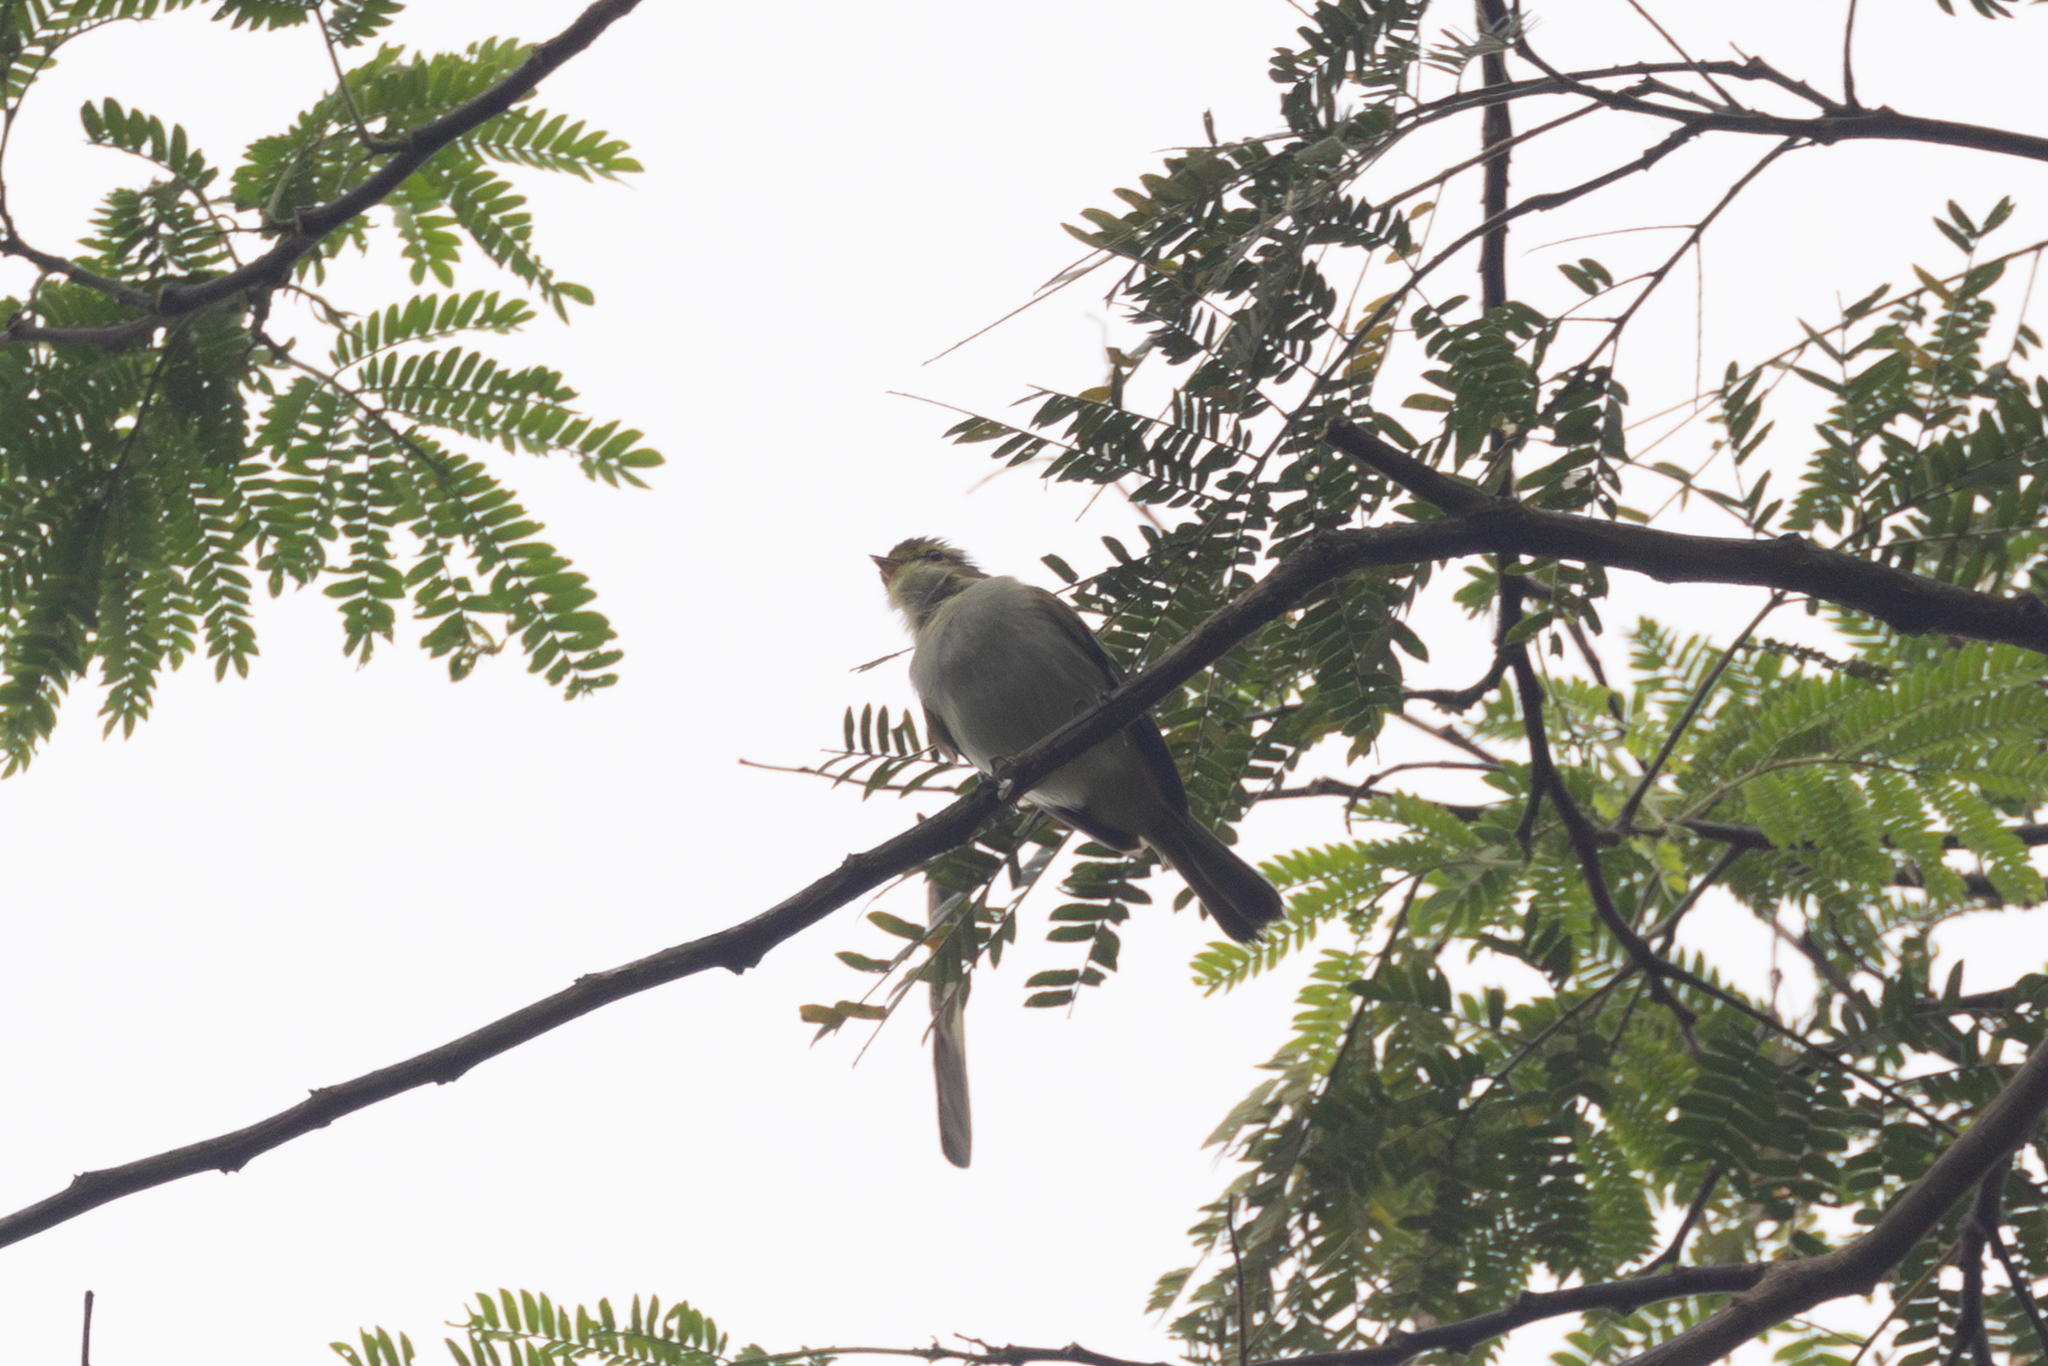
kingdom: Animalia
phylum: Chordata
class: Aves
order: Passeriformes
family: Tyrannidae
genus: Zimmerius
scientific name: Zimmerius chrysops
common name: Golden-faced tyrannulet
